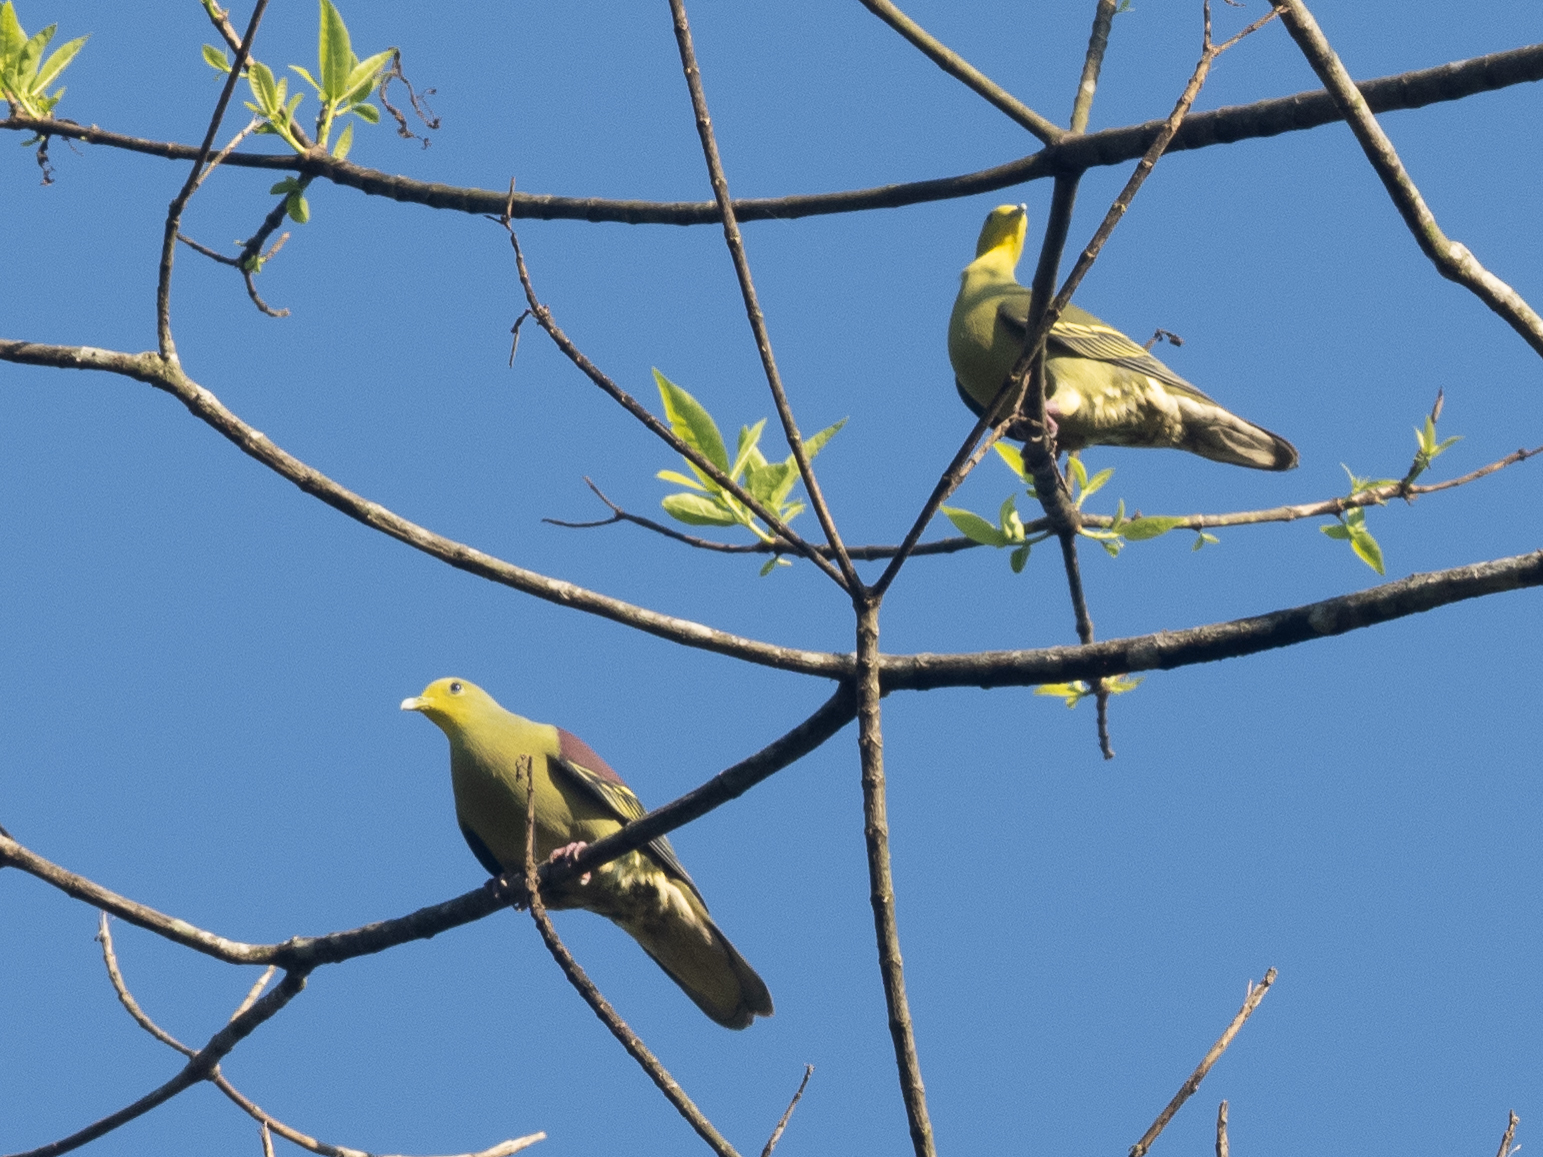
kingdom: Animalia
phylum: Chordata
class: Aves
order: Columbiformes
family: Columbidae
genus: Treron
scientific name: Treron pompadora
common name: Pompadour green pigeon
